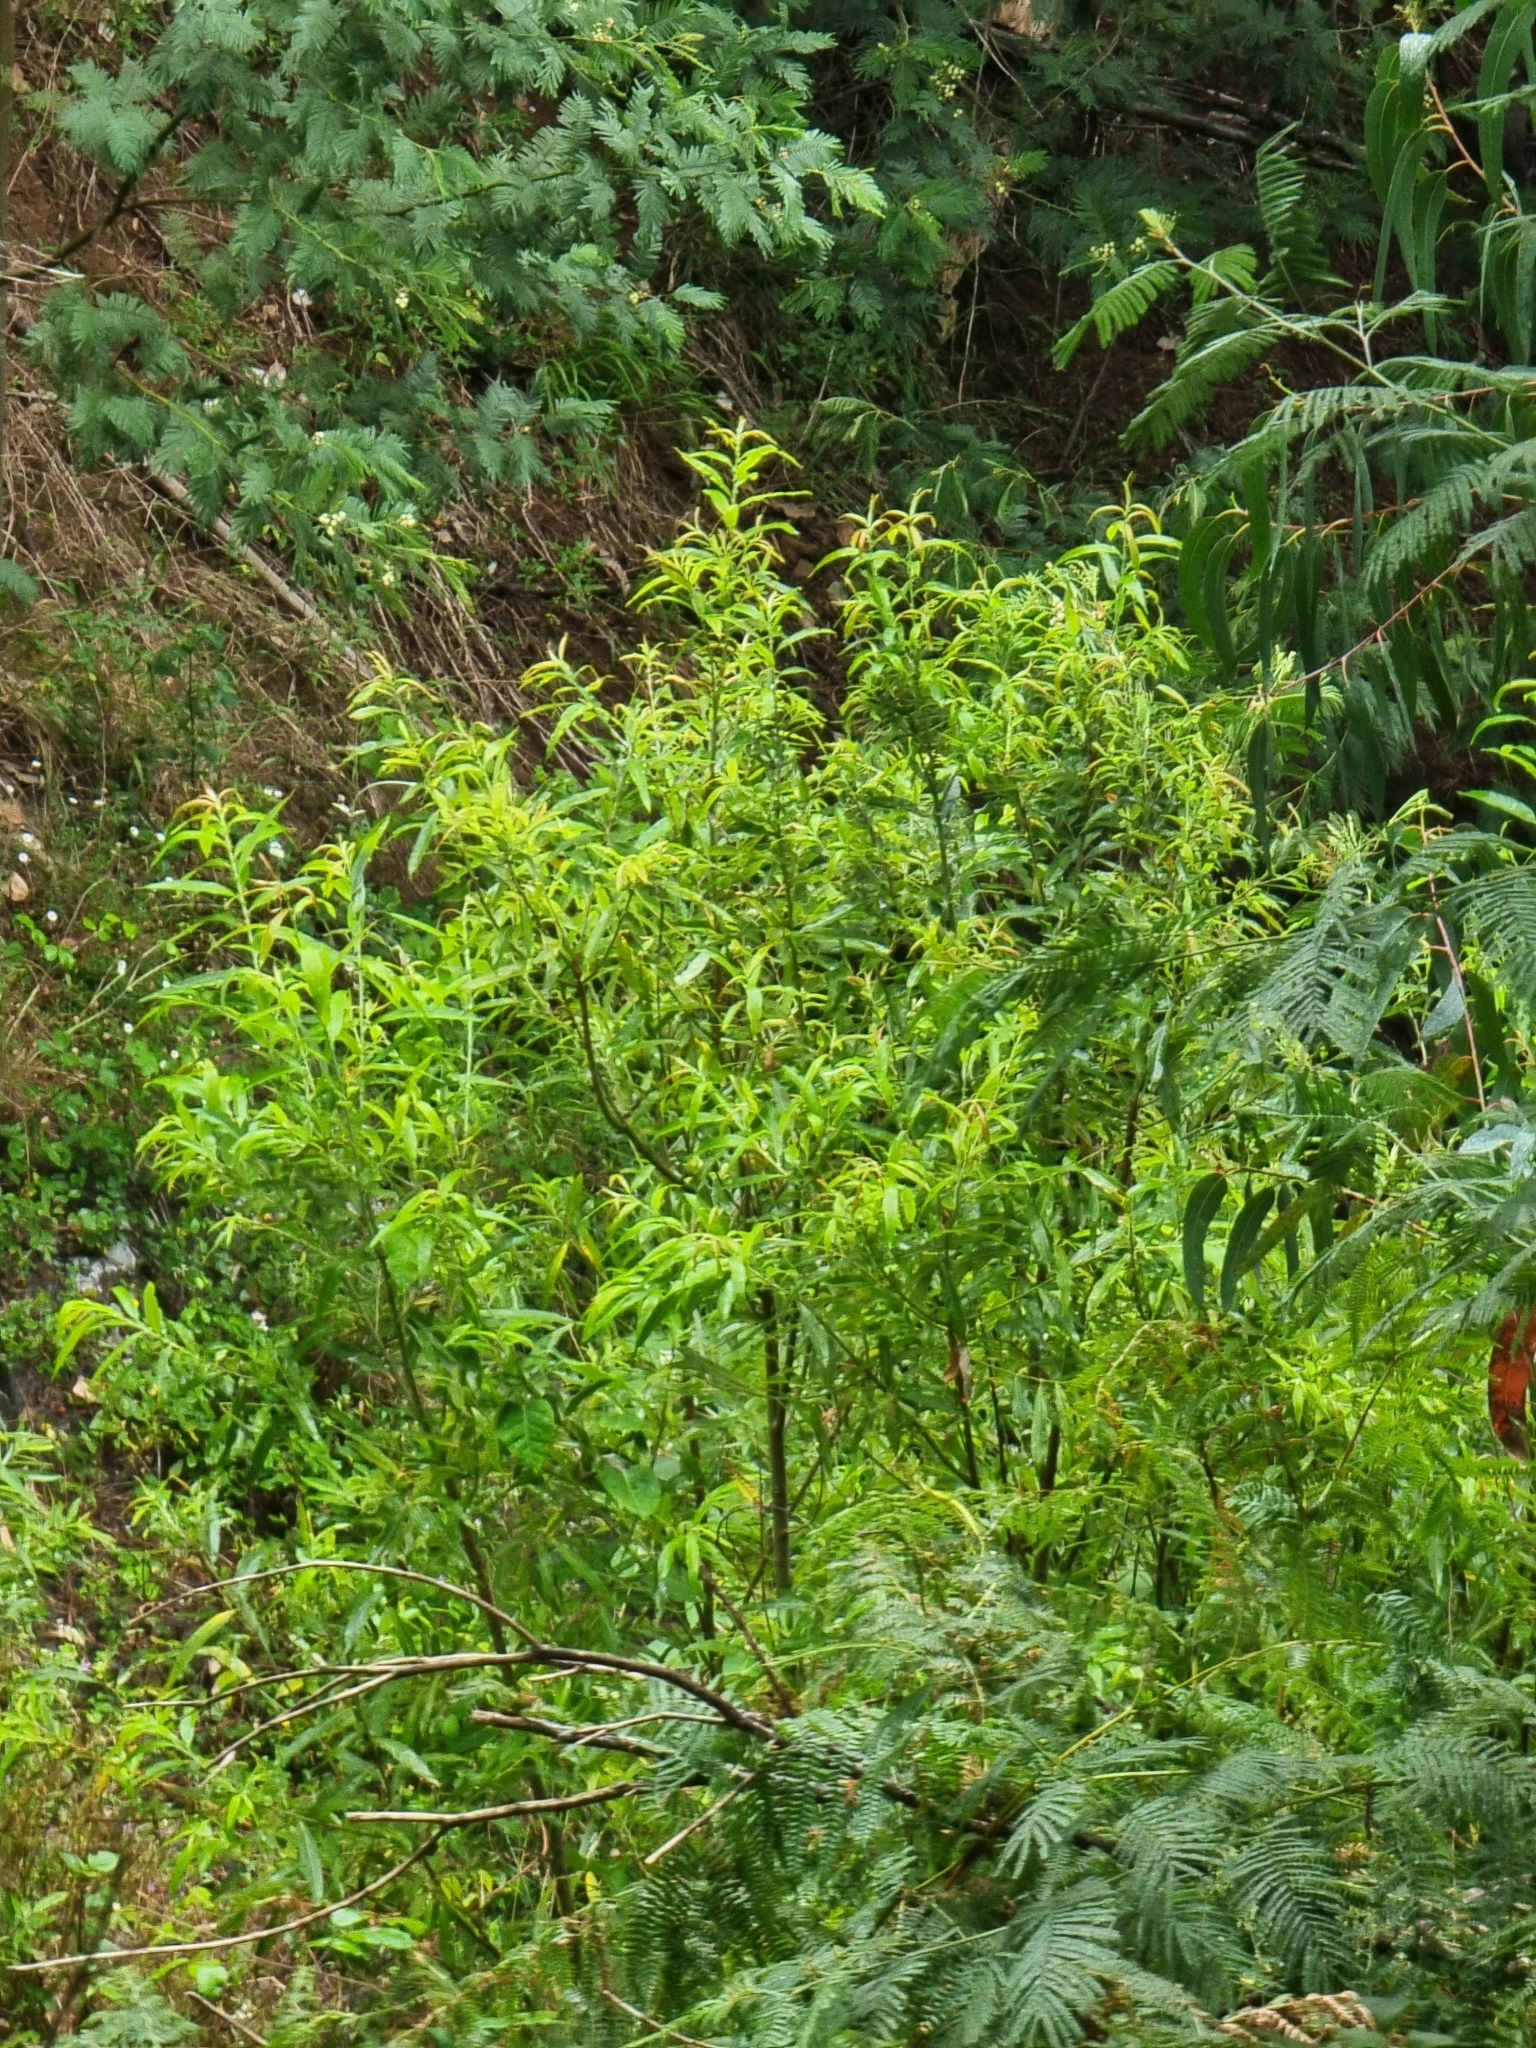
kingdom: Plantae
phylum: Tracheophyta
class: Magnoliopsida
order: Malpighiales
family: Salicaceae
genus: Salix
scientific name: Salix canariensis
